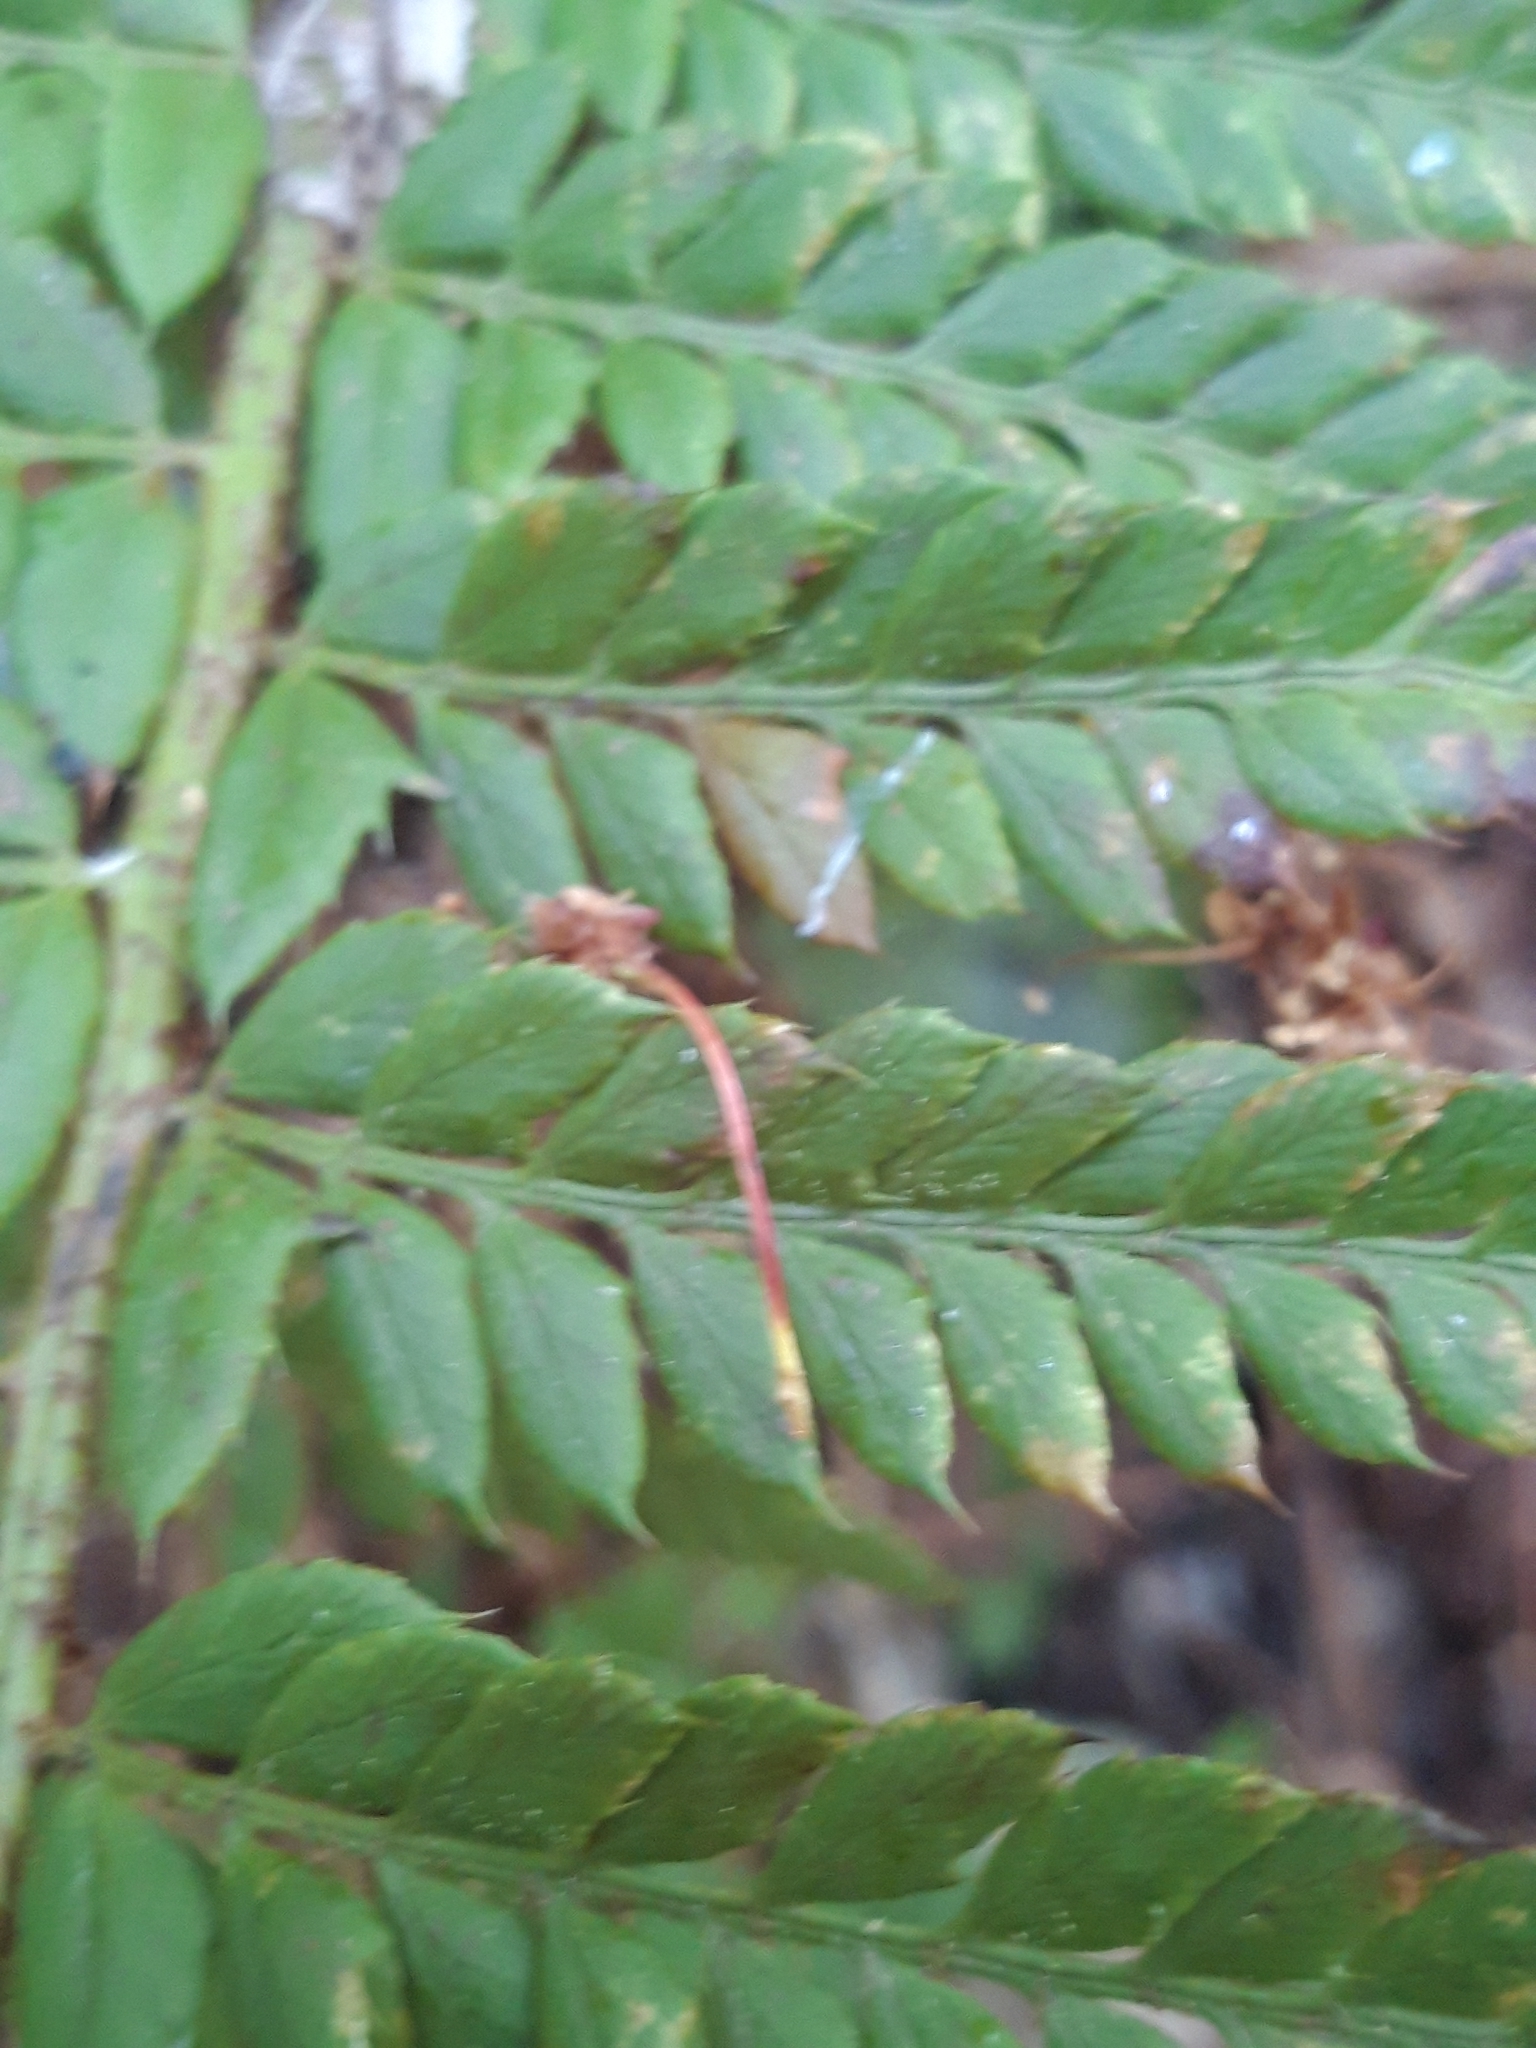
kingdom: Plantae
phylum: Tracheophyta
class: Polypodiopsida
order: Polypodiales
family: Dryopteridaceae
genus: Polystichum
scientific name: Polystichum aculeatum
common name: Hard shield-fern
